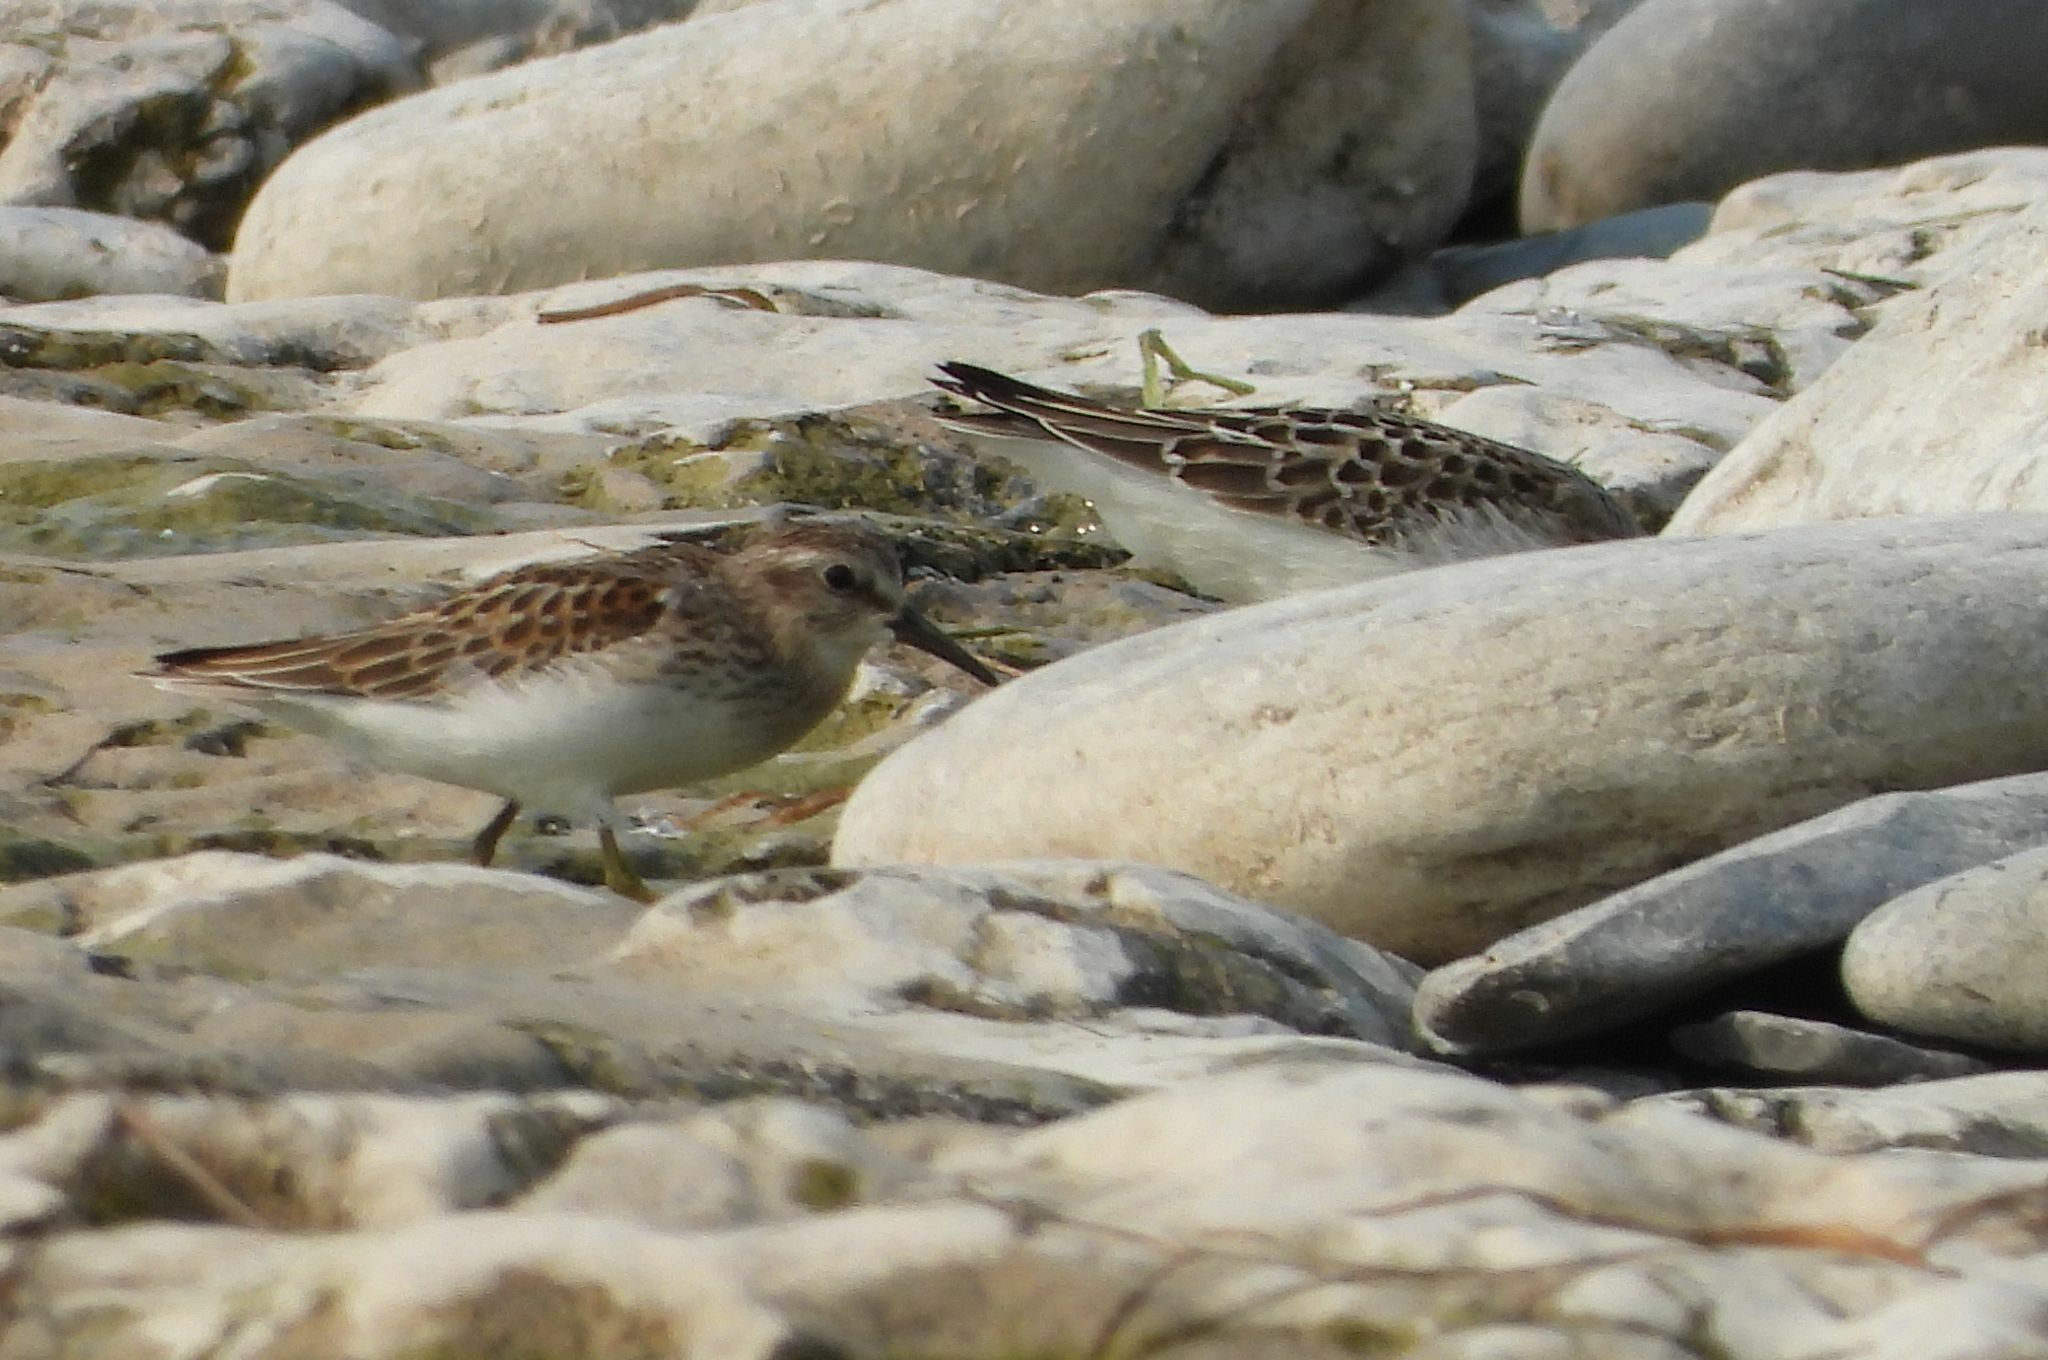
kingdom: Animalia
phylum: Chordata
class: Aves
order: Charadriiformes
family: Scolopacidae
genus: Calidris
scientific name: Calidris minutilla
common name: Least sandpiper
